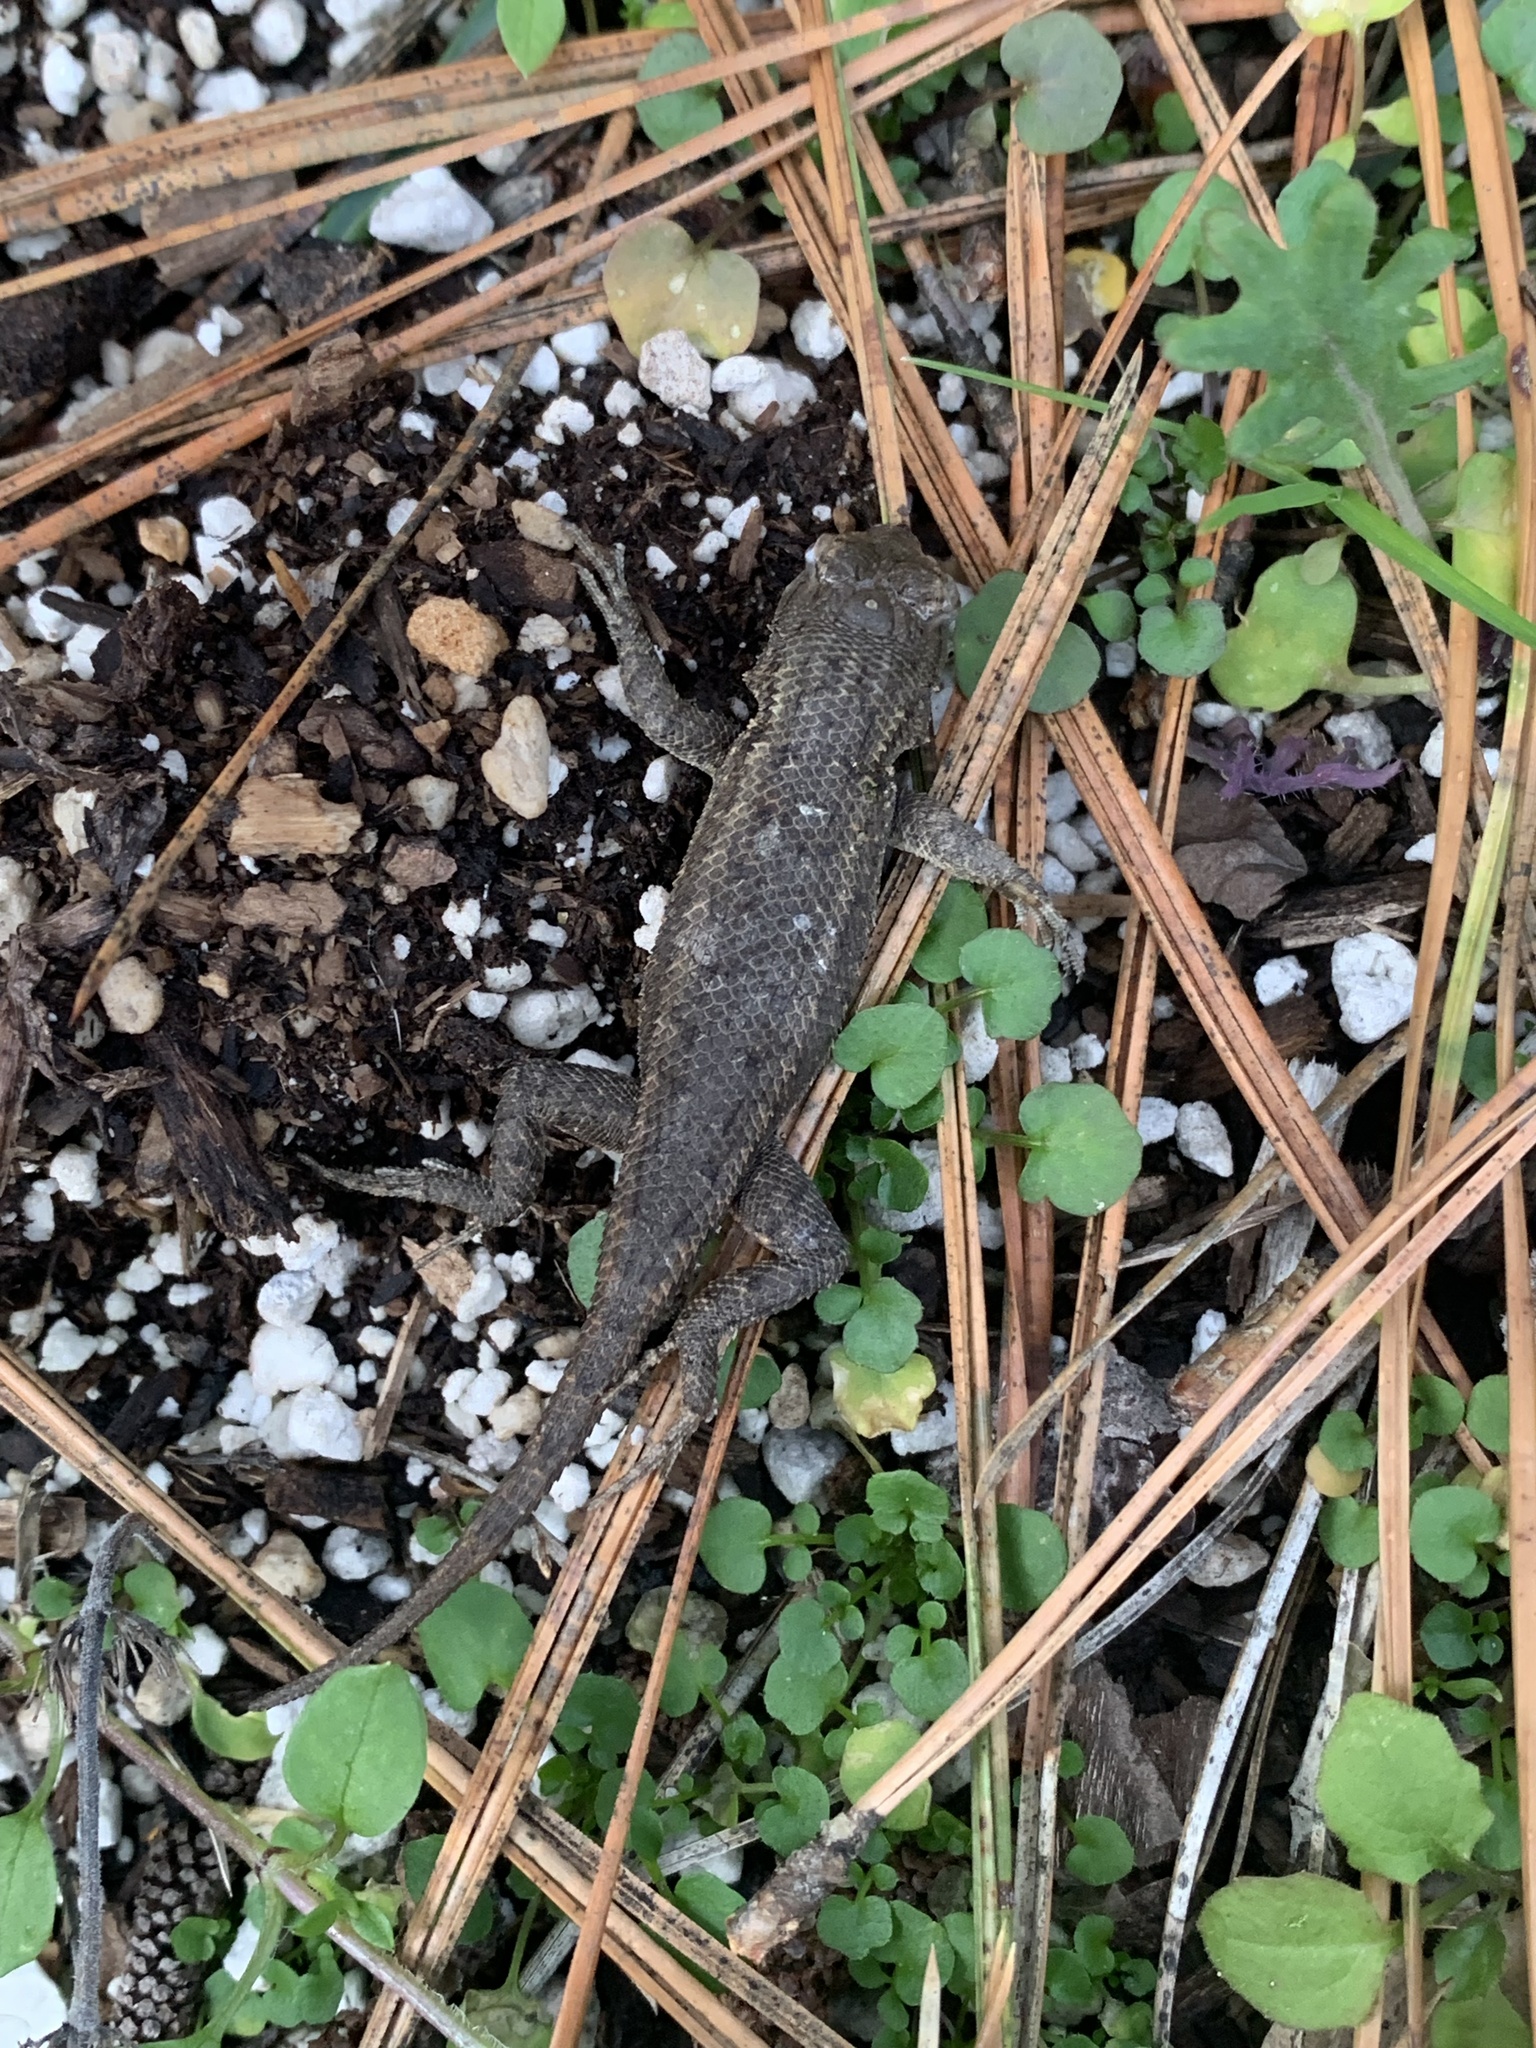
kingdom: Animalia
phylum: Chordata
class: Squamata
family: Phrynosomatidae
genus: Sceloporus
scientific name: Sceloporus occidentalis
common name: Western fence lizard
